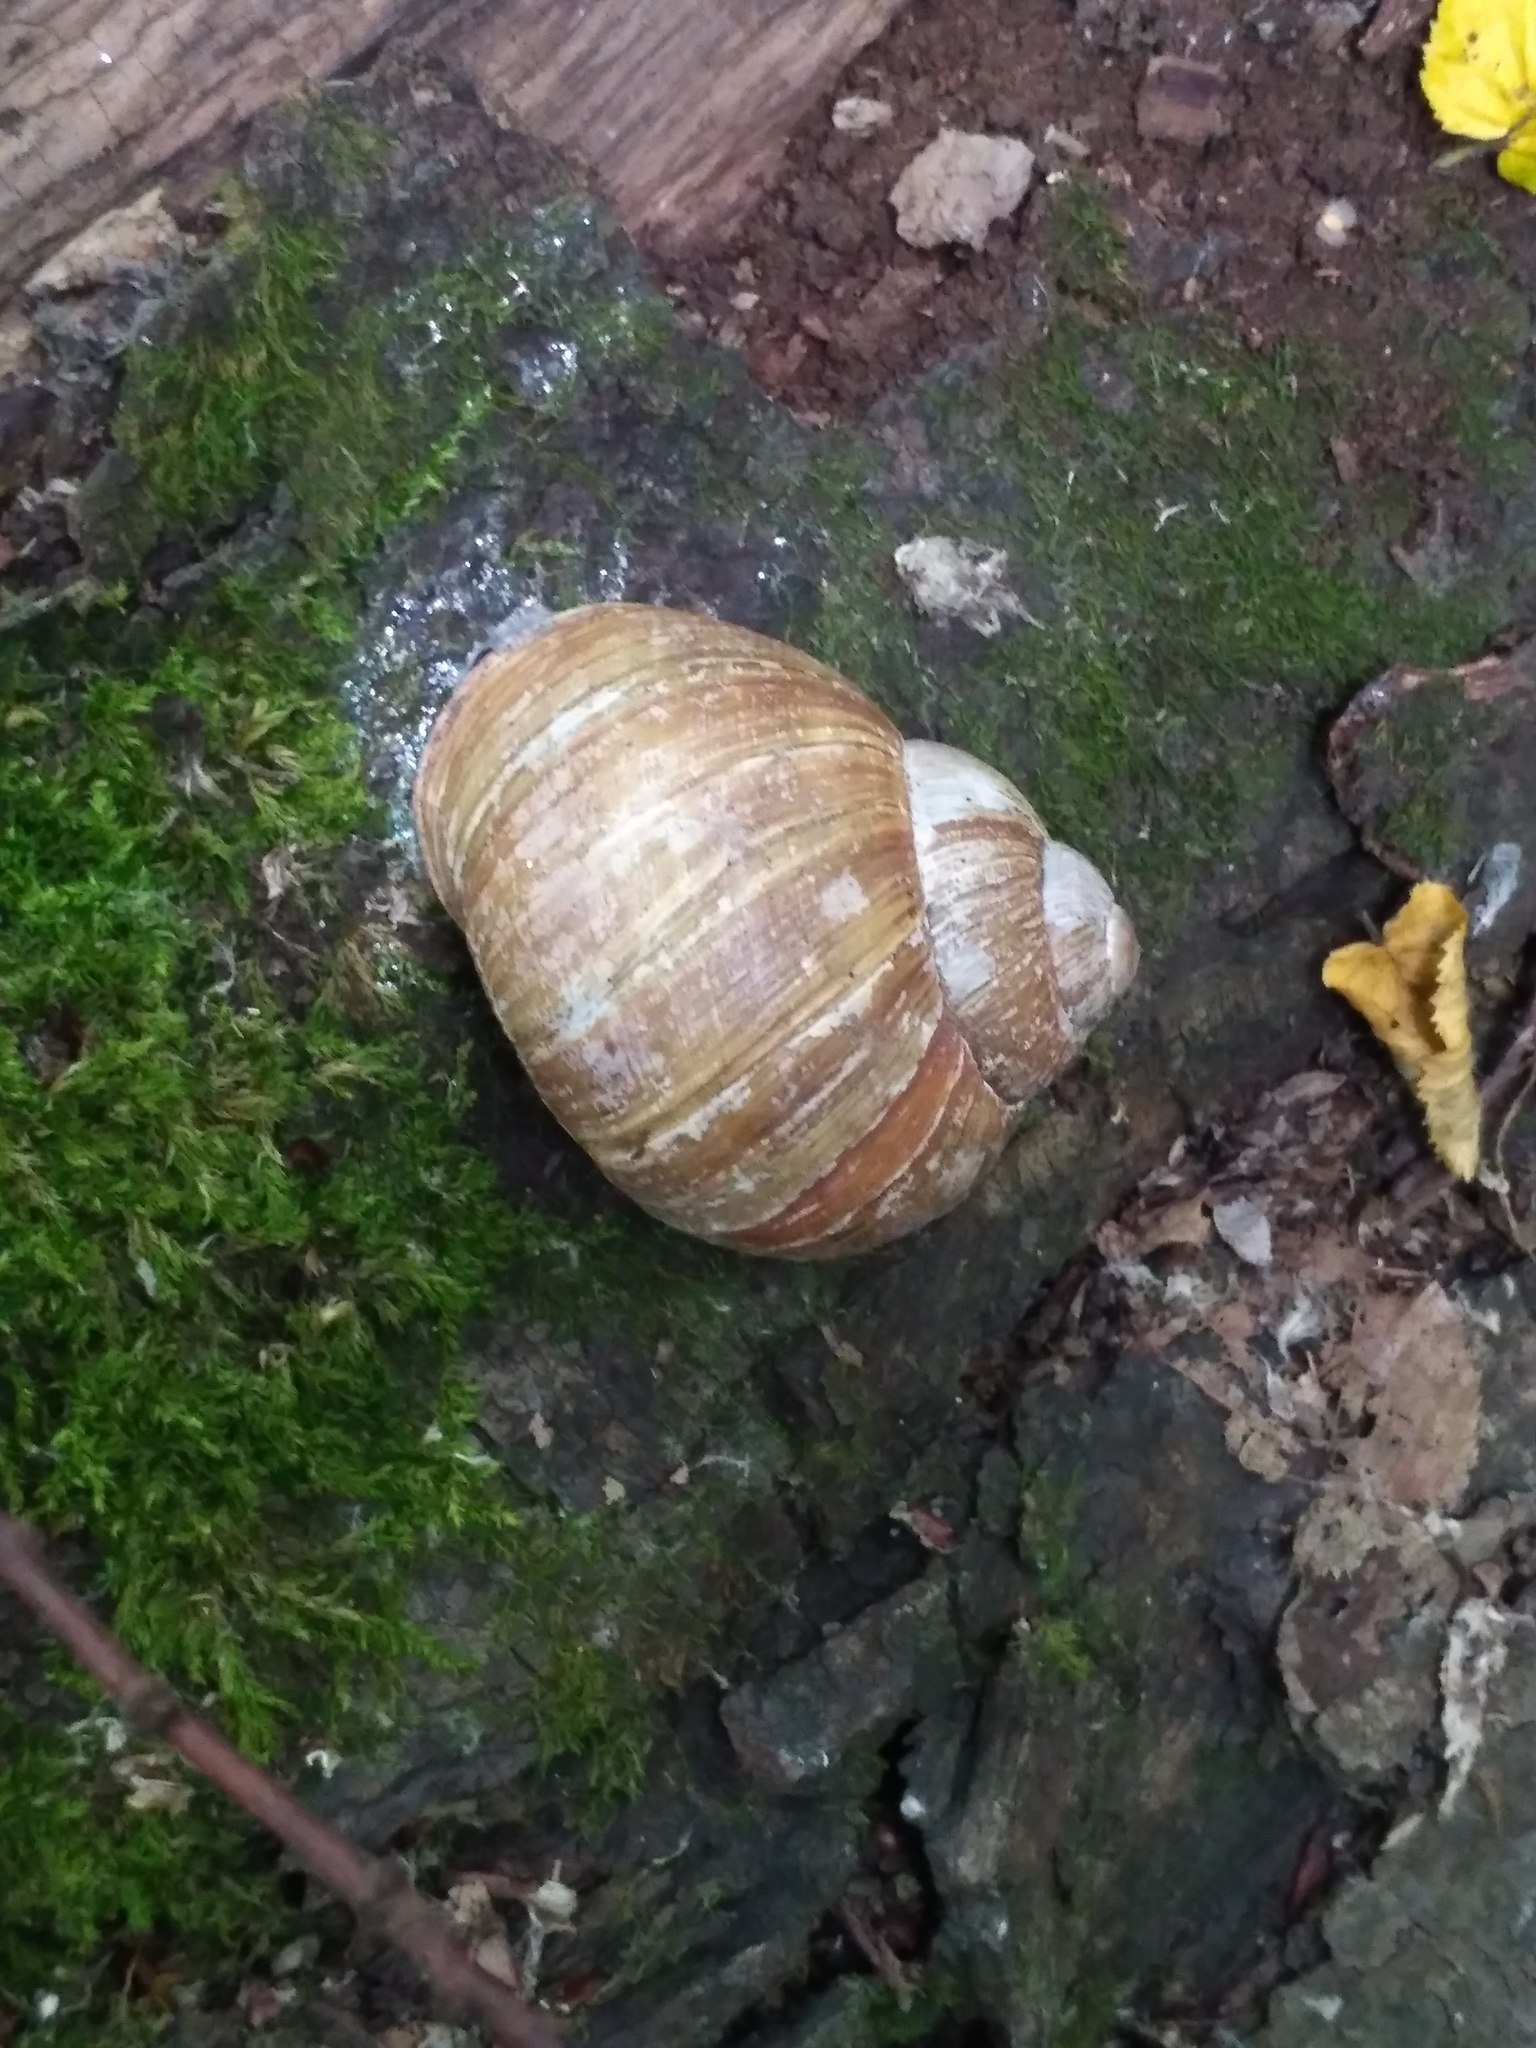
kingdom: Animalia
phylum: Mollusca
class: Gastropoda
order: Stylommatophora
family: Helicidae
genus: Helix
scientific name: Helix pomatia
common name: Roman snail
